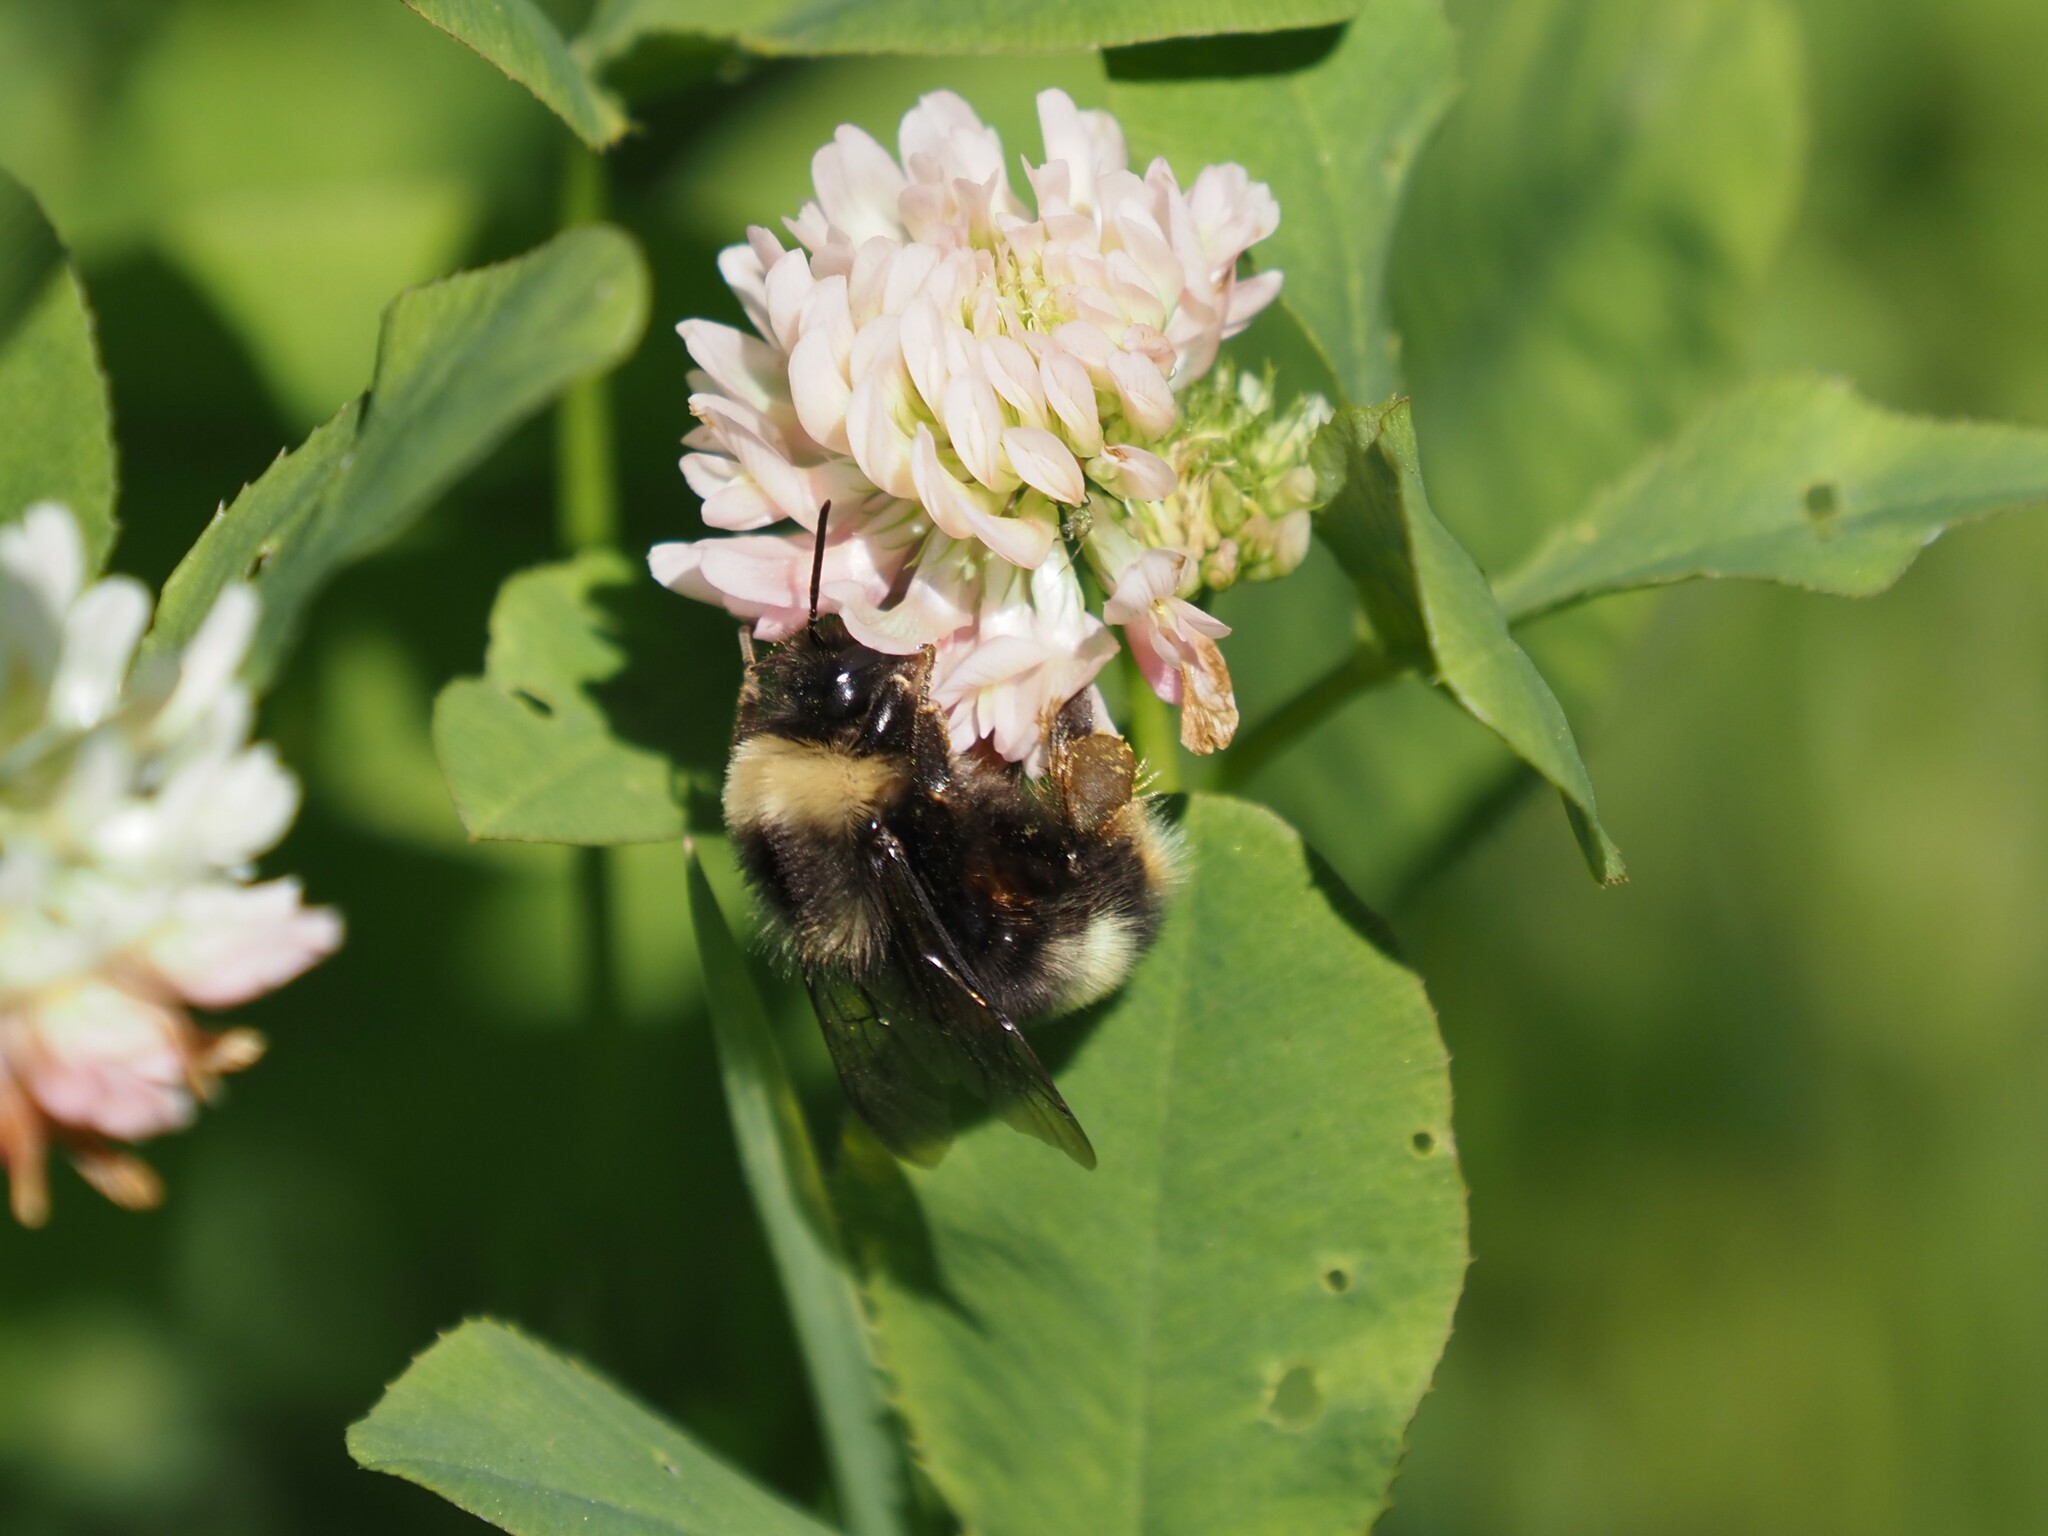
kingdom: Animalia
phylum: Arthropoda
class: Insecta
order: Hymenoptera
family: Apidae
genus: Bombus
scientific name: Bombus mckayi
